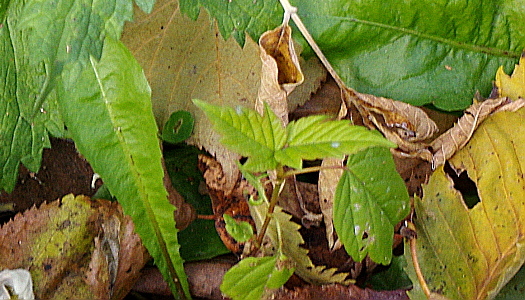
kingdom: Plantae
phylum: Tracheophyta
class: Magnoliopsida
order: Sapindales
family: Sapindaceae
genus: Acer
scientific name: Acer negundo
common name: Ashleaf maple
